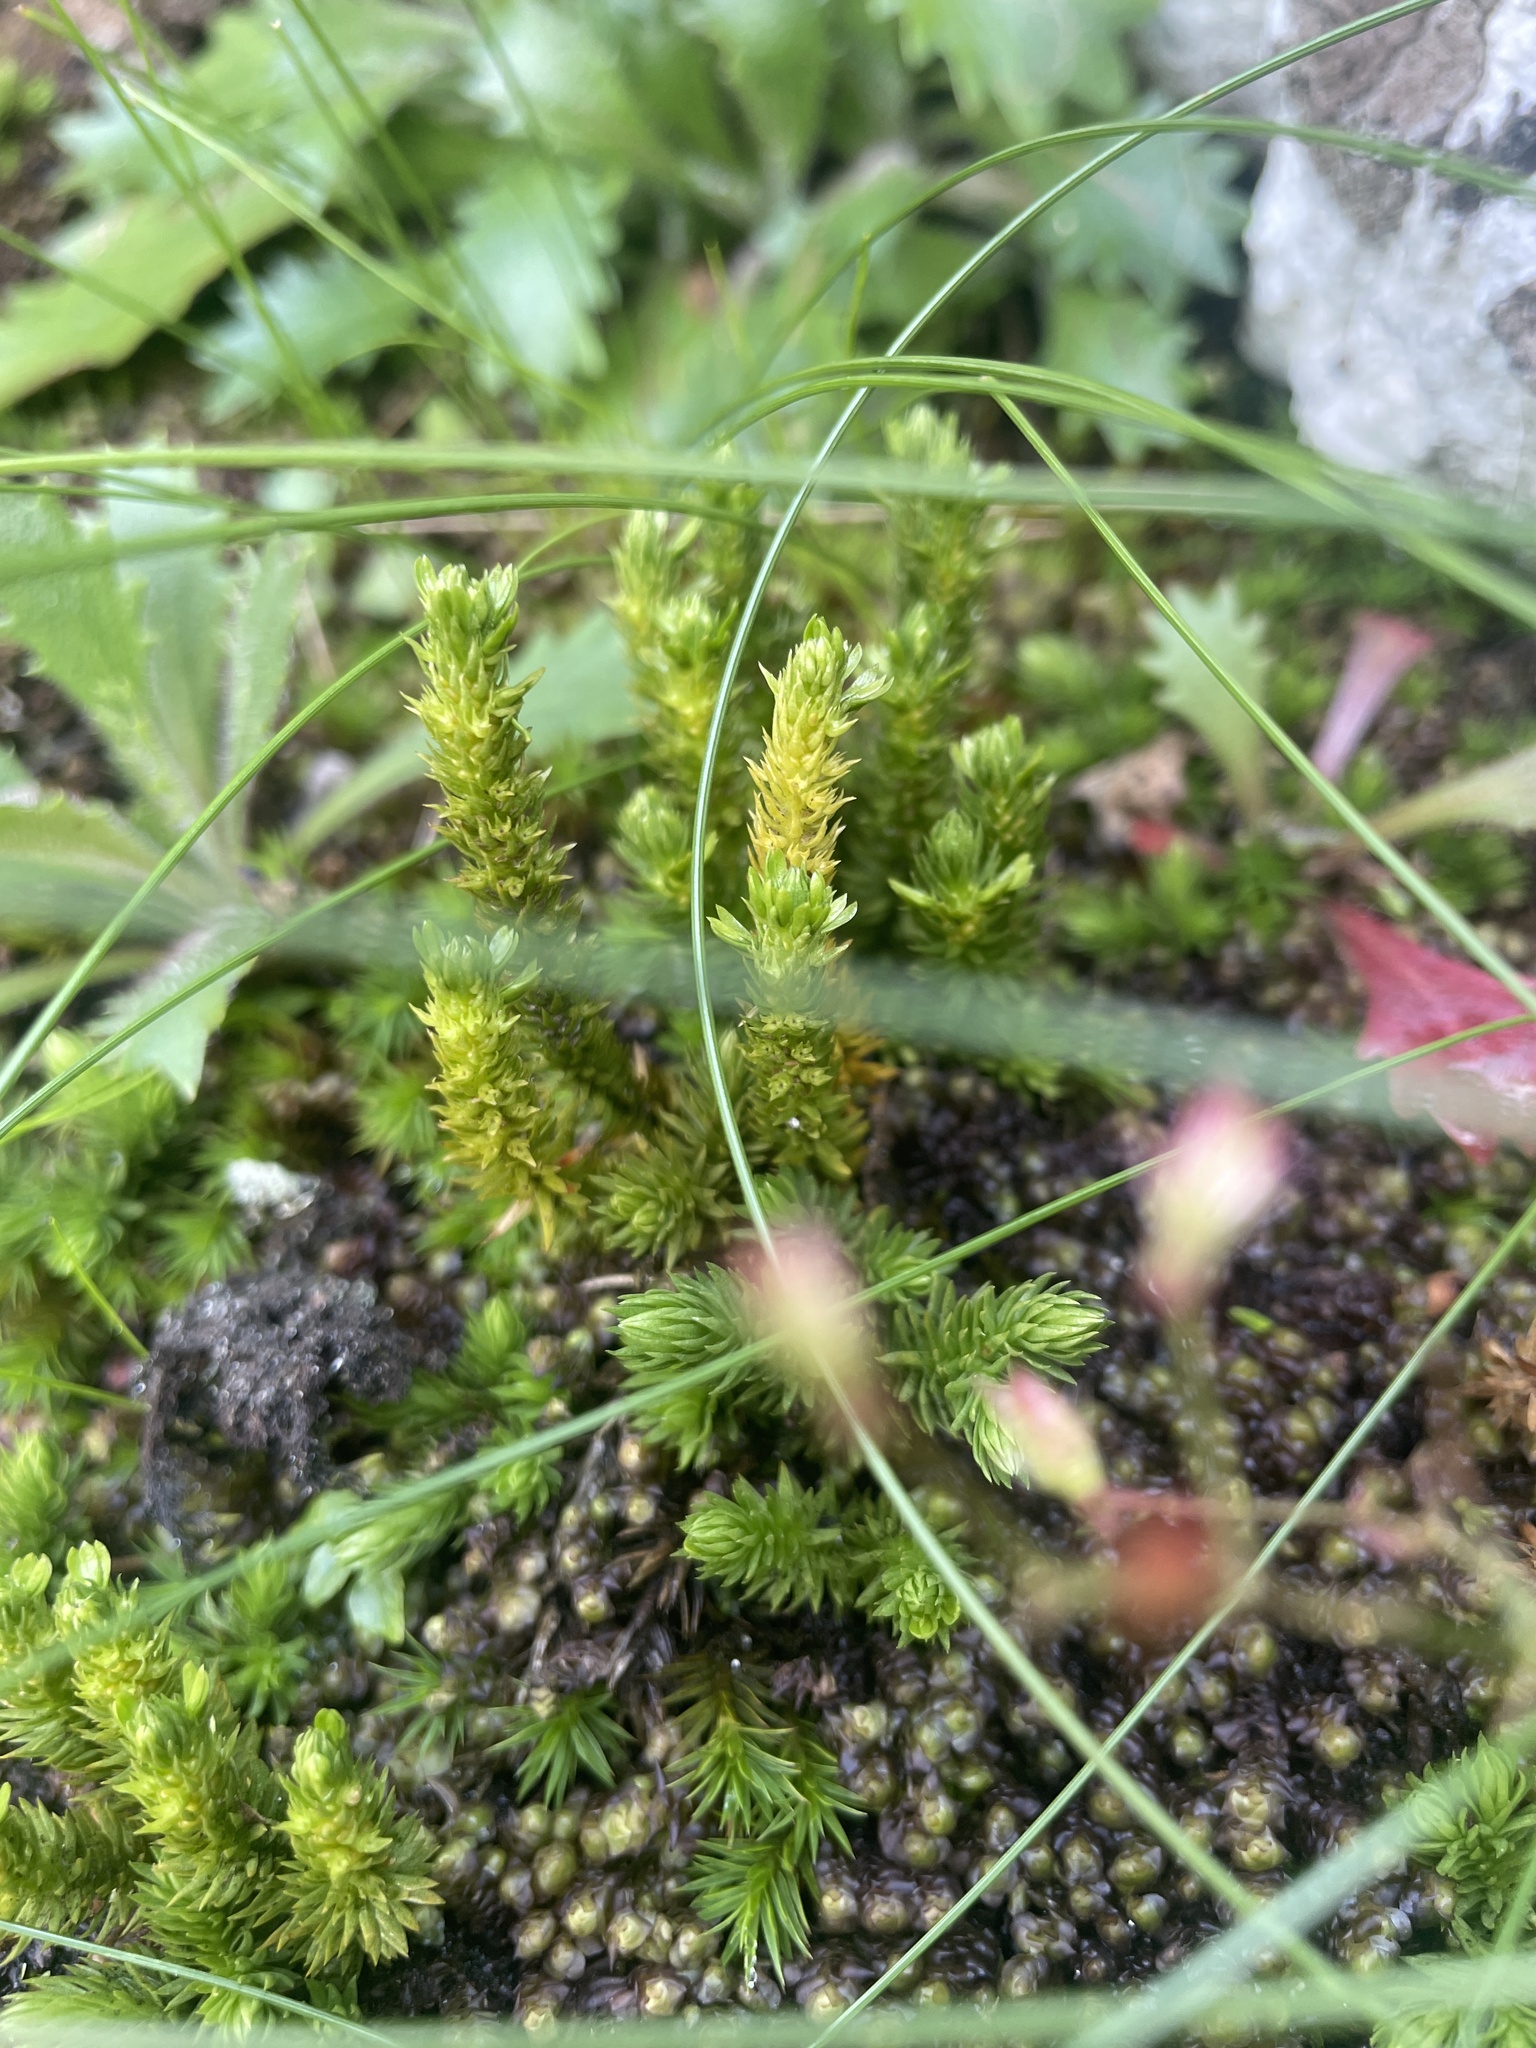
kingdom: Plantae
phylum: Tracheophyta
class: Lycopodiopsida
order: Lycopodiales
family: Lycopodiaceae
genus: Huperzia
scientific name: Huperzia selago
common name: Northern firmoss
